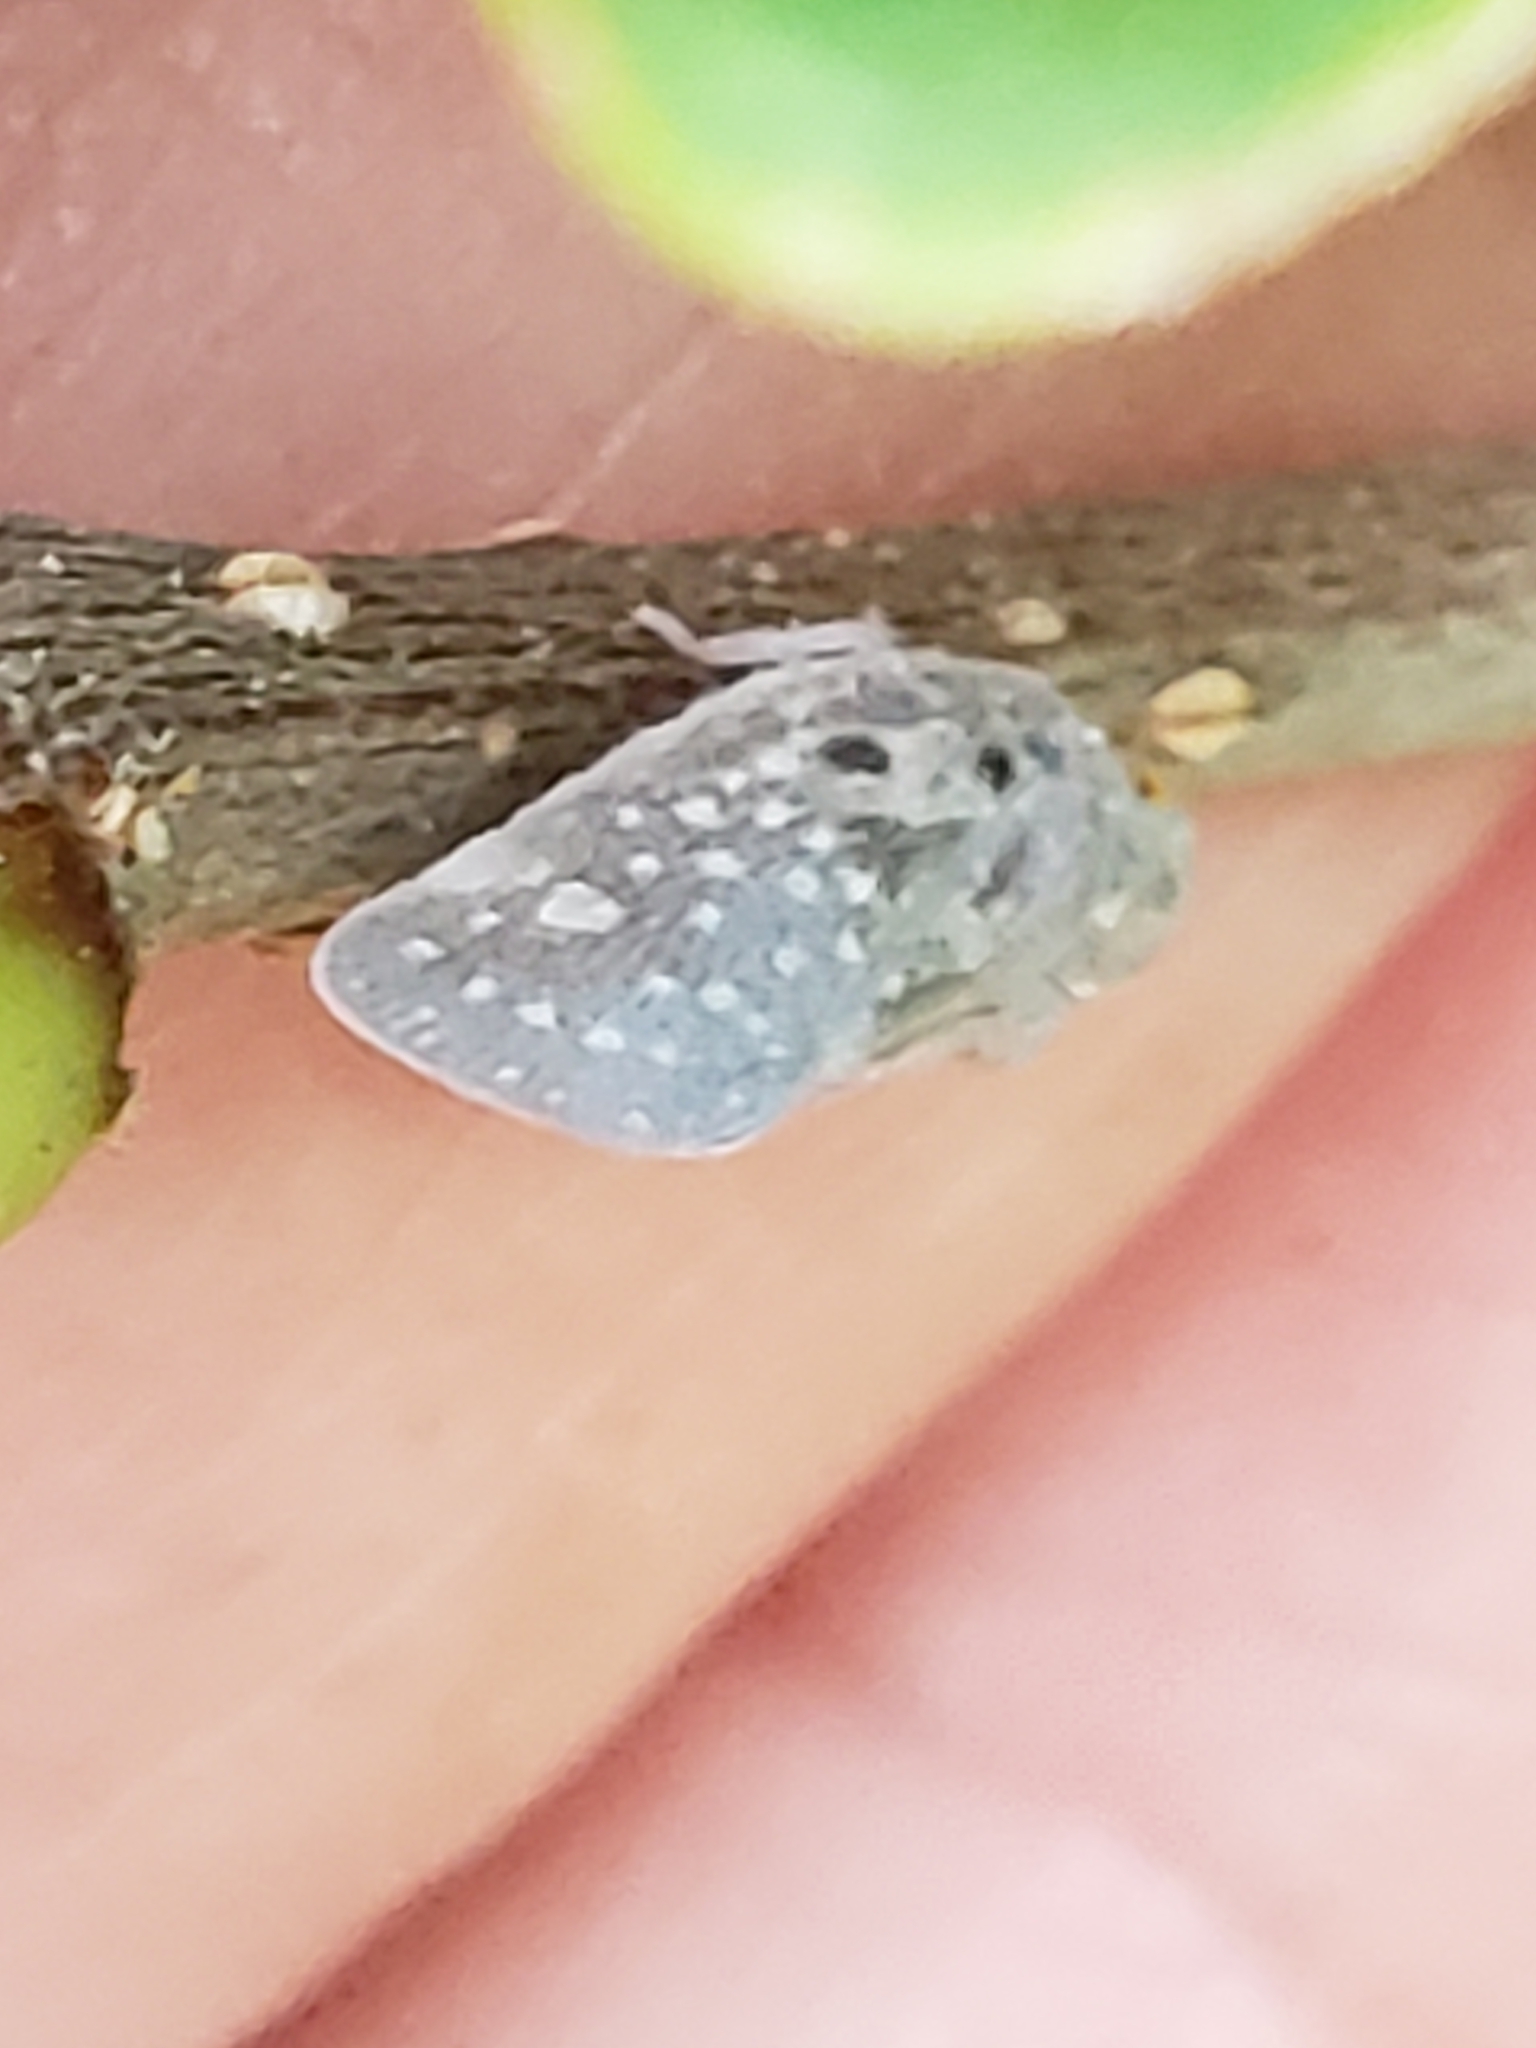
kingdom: Animalia
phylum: Arthropoda
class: Insecta
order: Hemiptera
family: Flatidae
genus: Metcalfa
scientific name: Metcalfa pruinosa
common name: Citrus flatid planthopper
